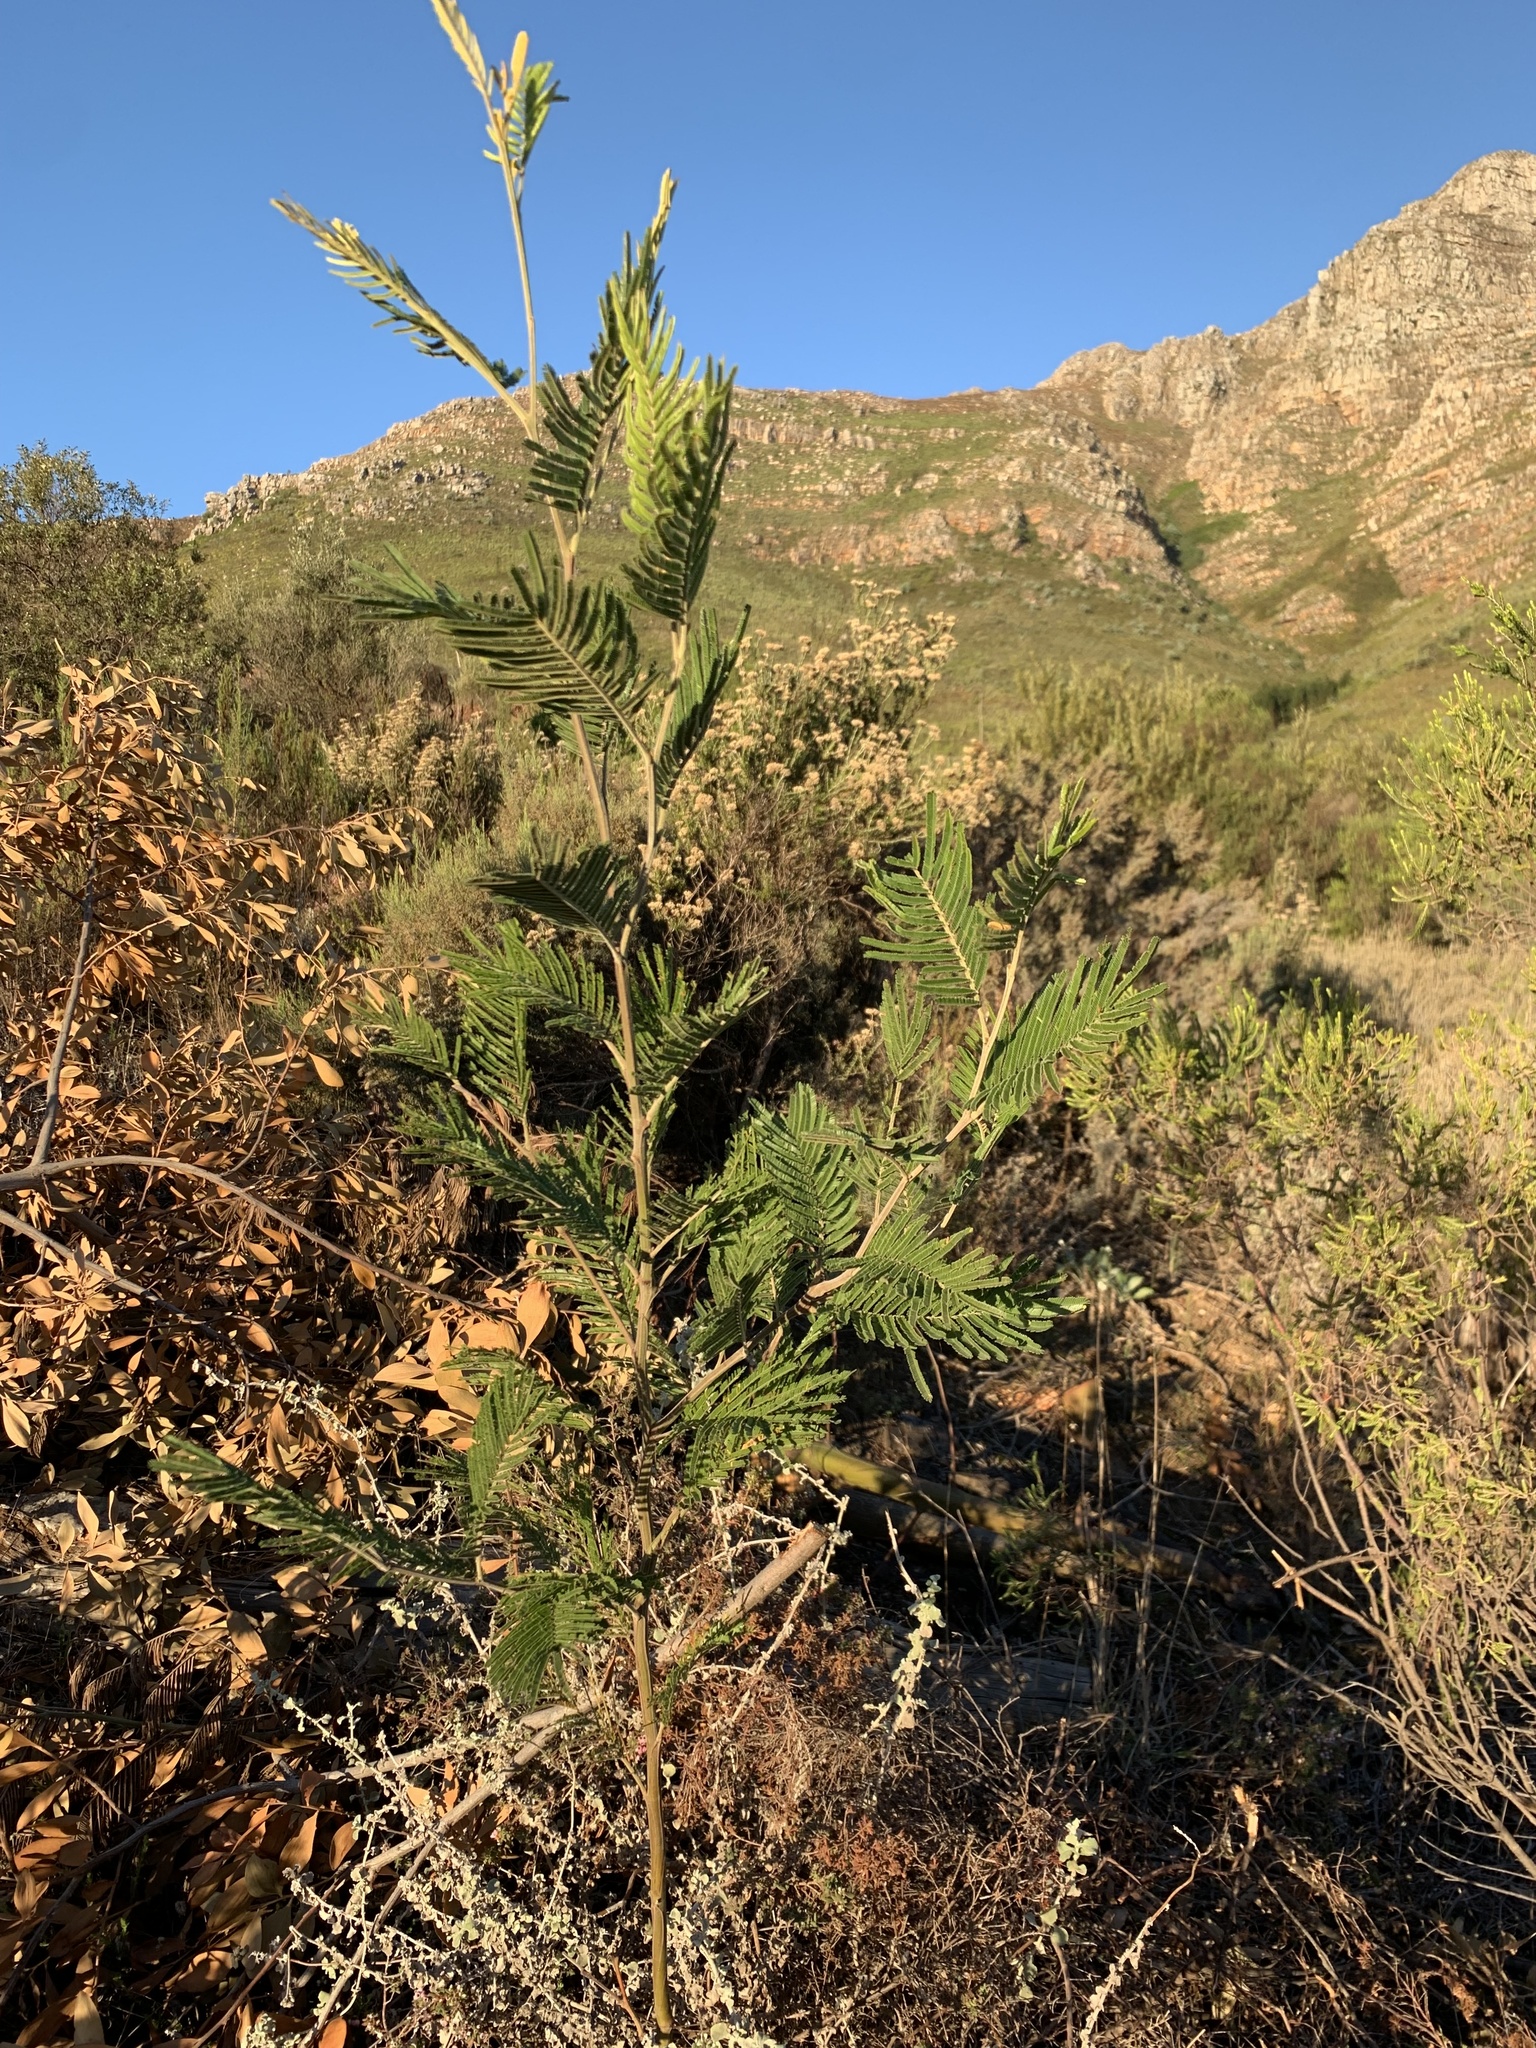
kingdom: Plantae
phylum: Tracheophyta
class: Magnoliopsida
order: Fabales
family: Fabaceae
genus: Acacia
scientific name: Acacia mearnsii
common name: Black wattle
